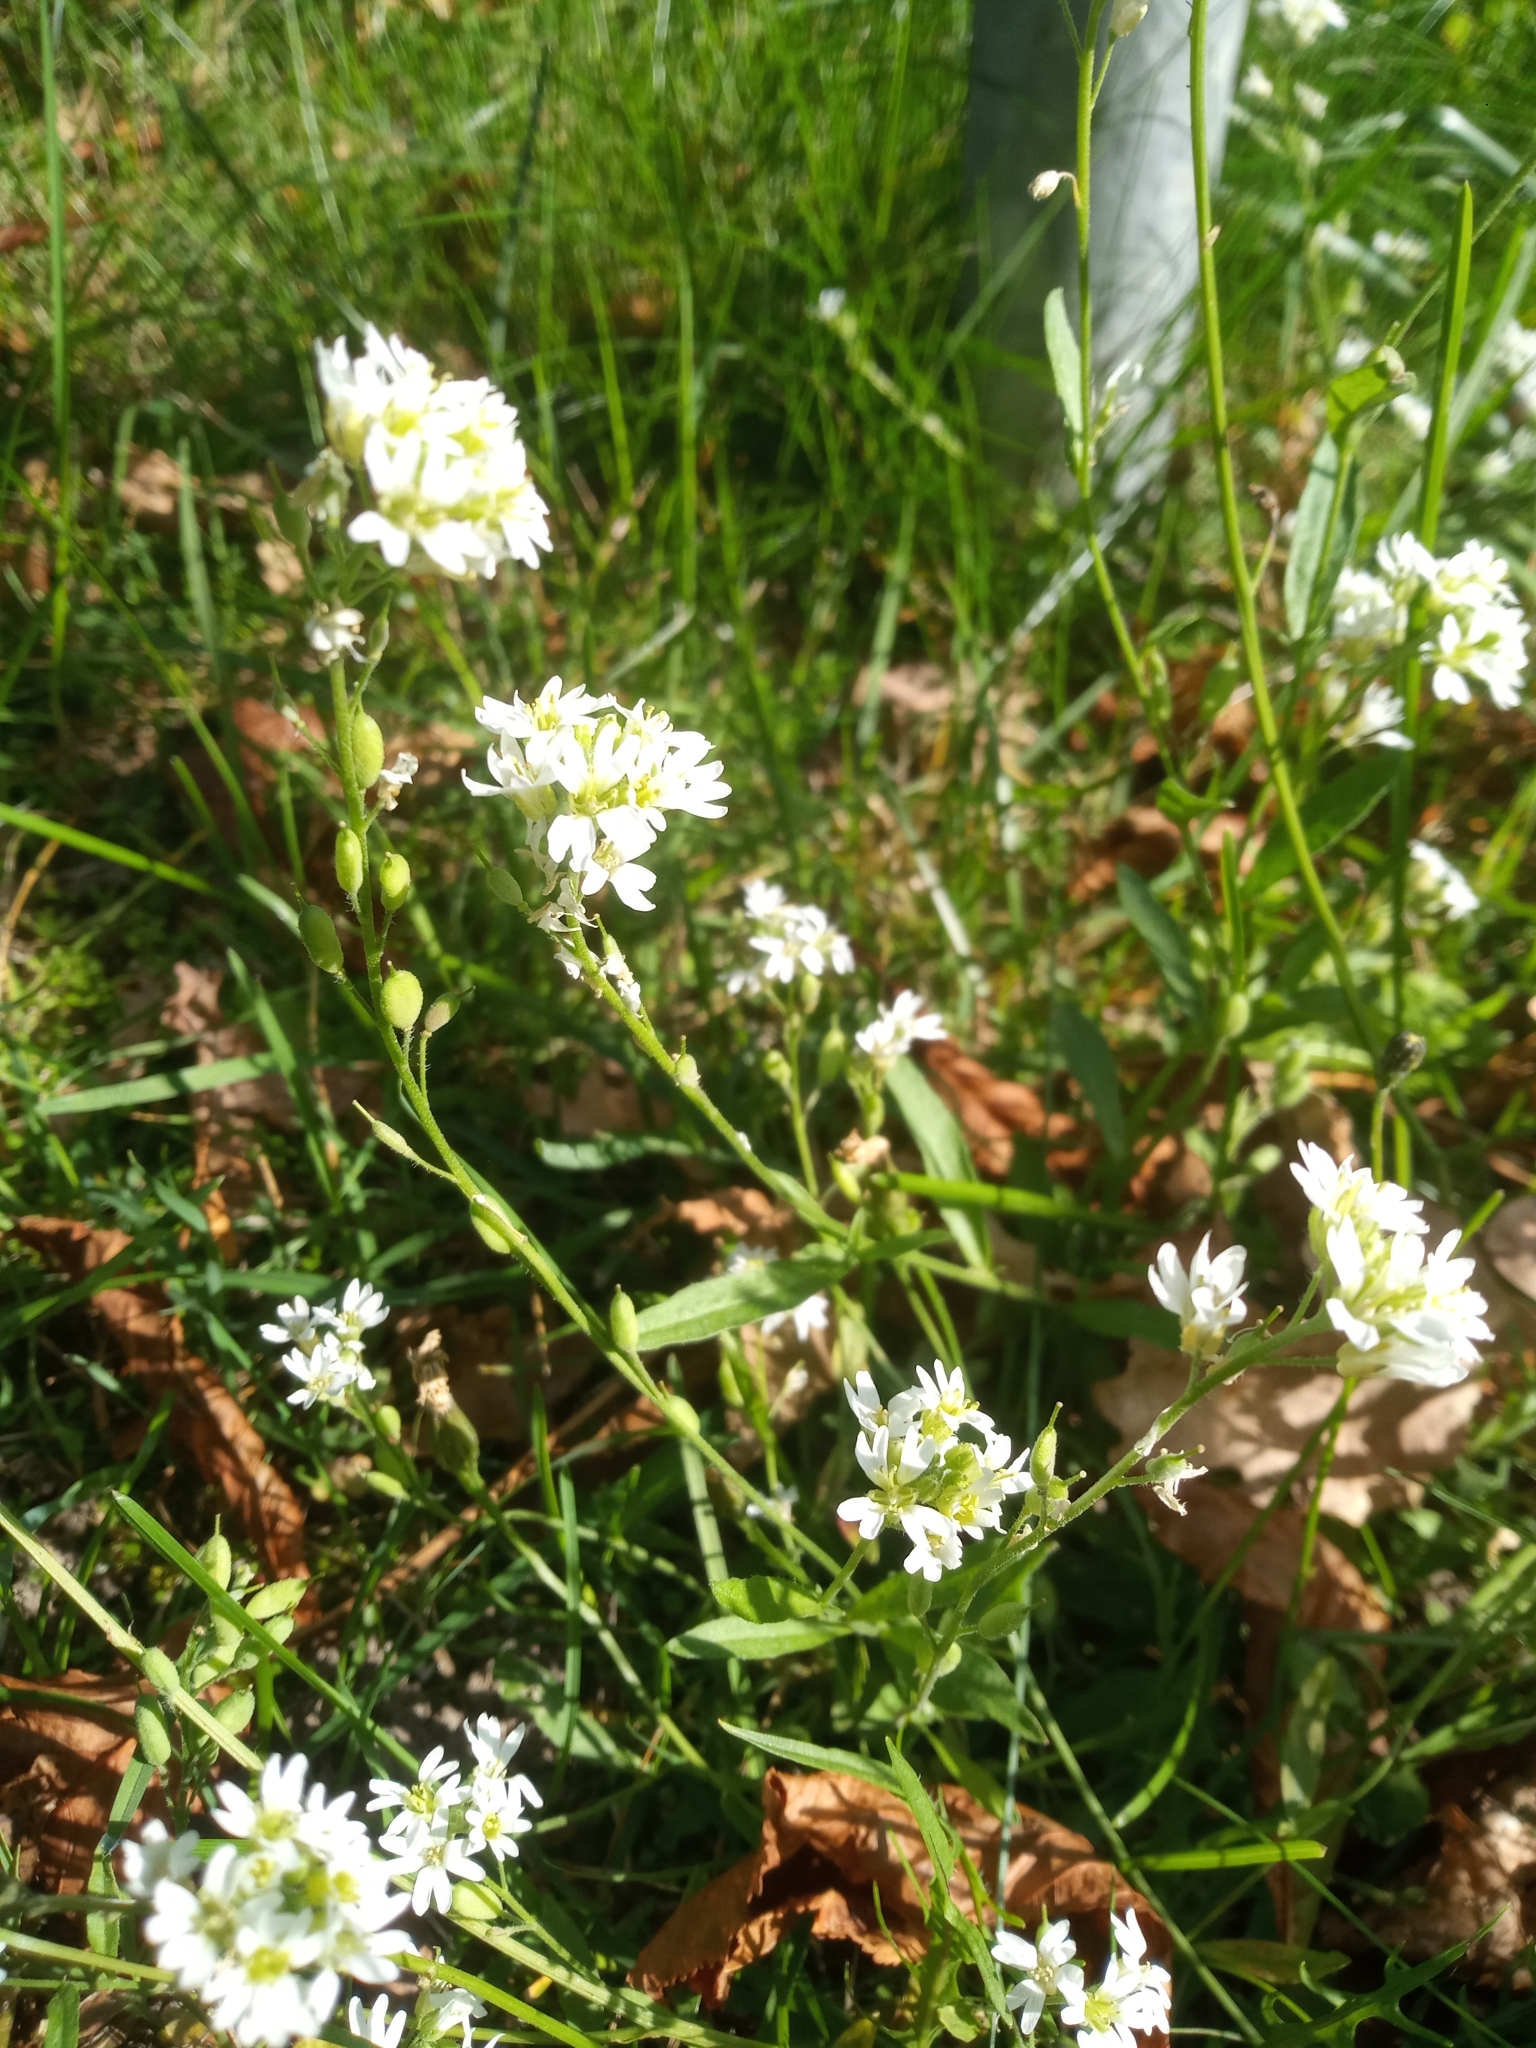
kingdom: Plantae
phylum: Tracheophyta
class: Magnoliopsida
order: Brassicales
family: Brassicaceae
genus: Berteroa
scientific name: Berteroa incana
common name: Hoary alison
